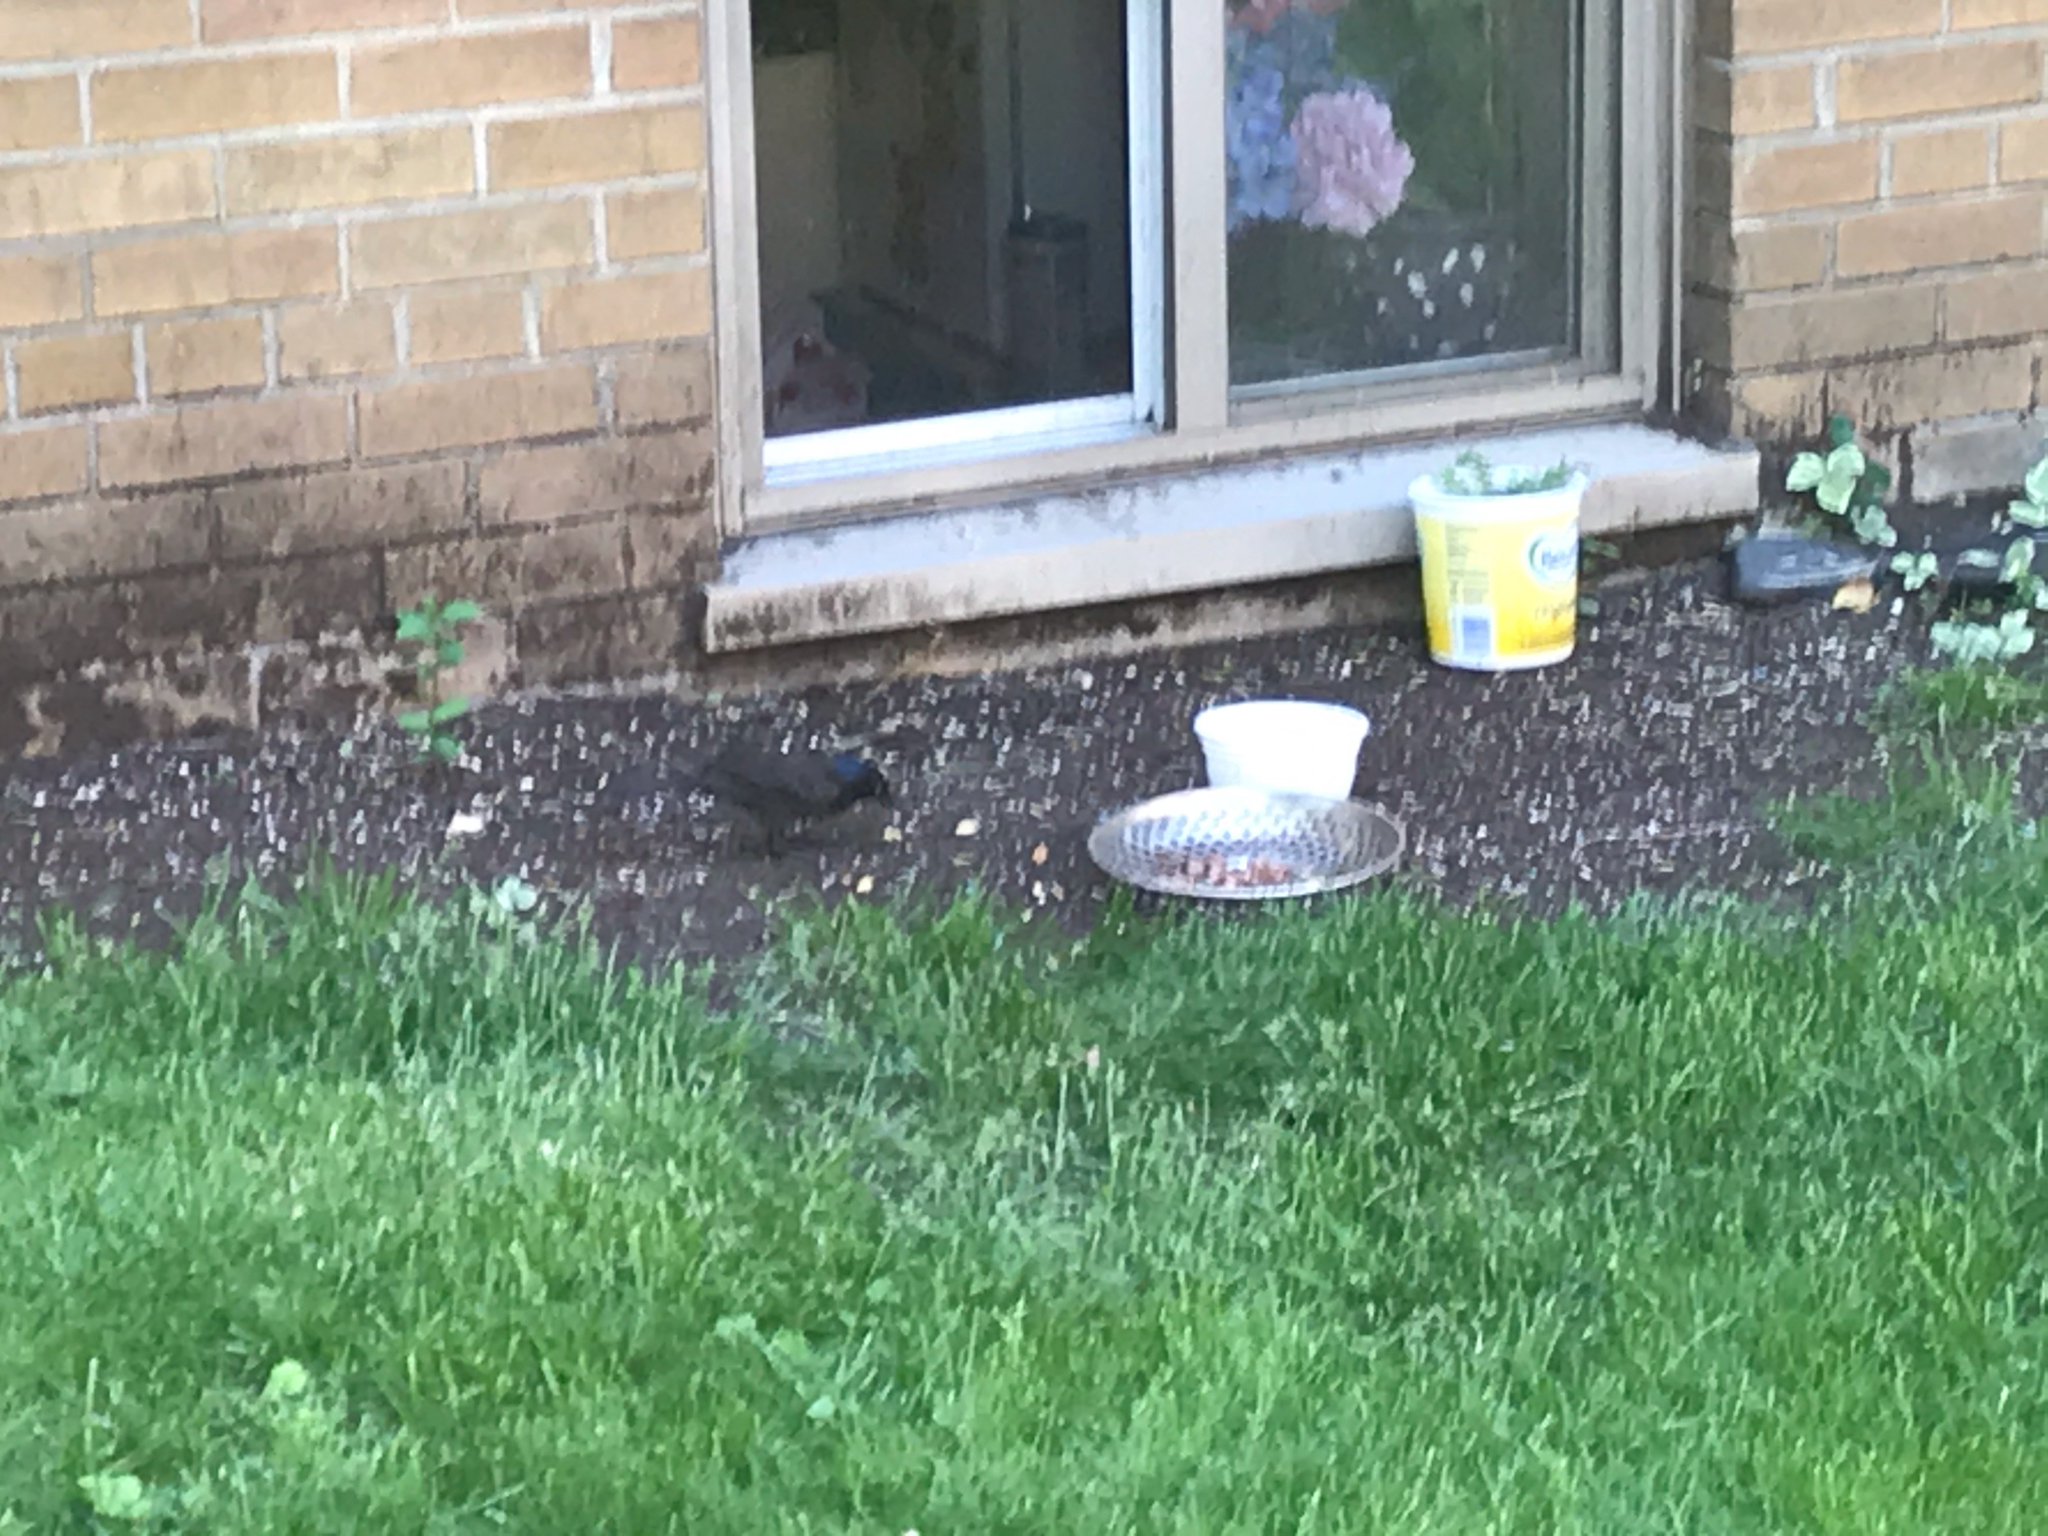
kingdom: Animalia
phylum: Chordata
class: Aves
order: Passeriformes
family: Icteridae
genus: Quiscalus
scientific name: Quiscalus quiscula
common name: Common grackle
